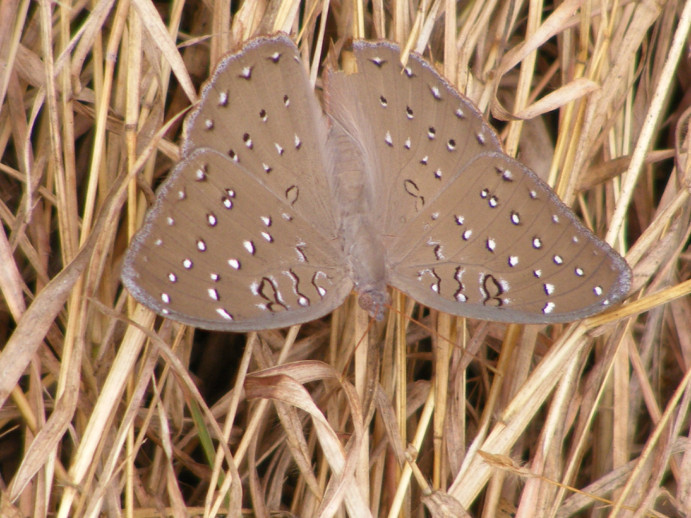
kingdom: Animalia
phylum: Arthropoda
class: Insecta
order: Lepidoptera
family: Nymphalidae
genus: Hamanumida
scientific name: Hamanumida daedalus
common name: Guinea-fowl butterfly
